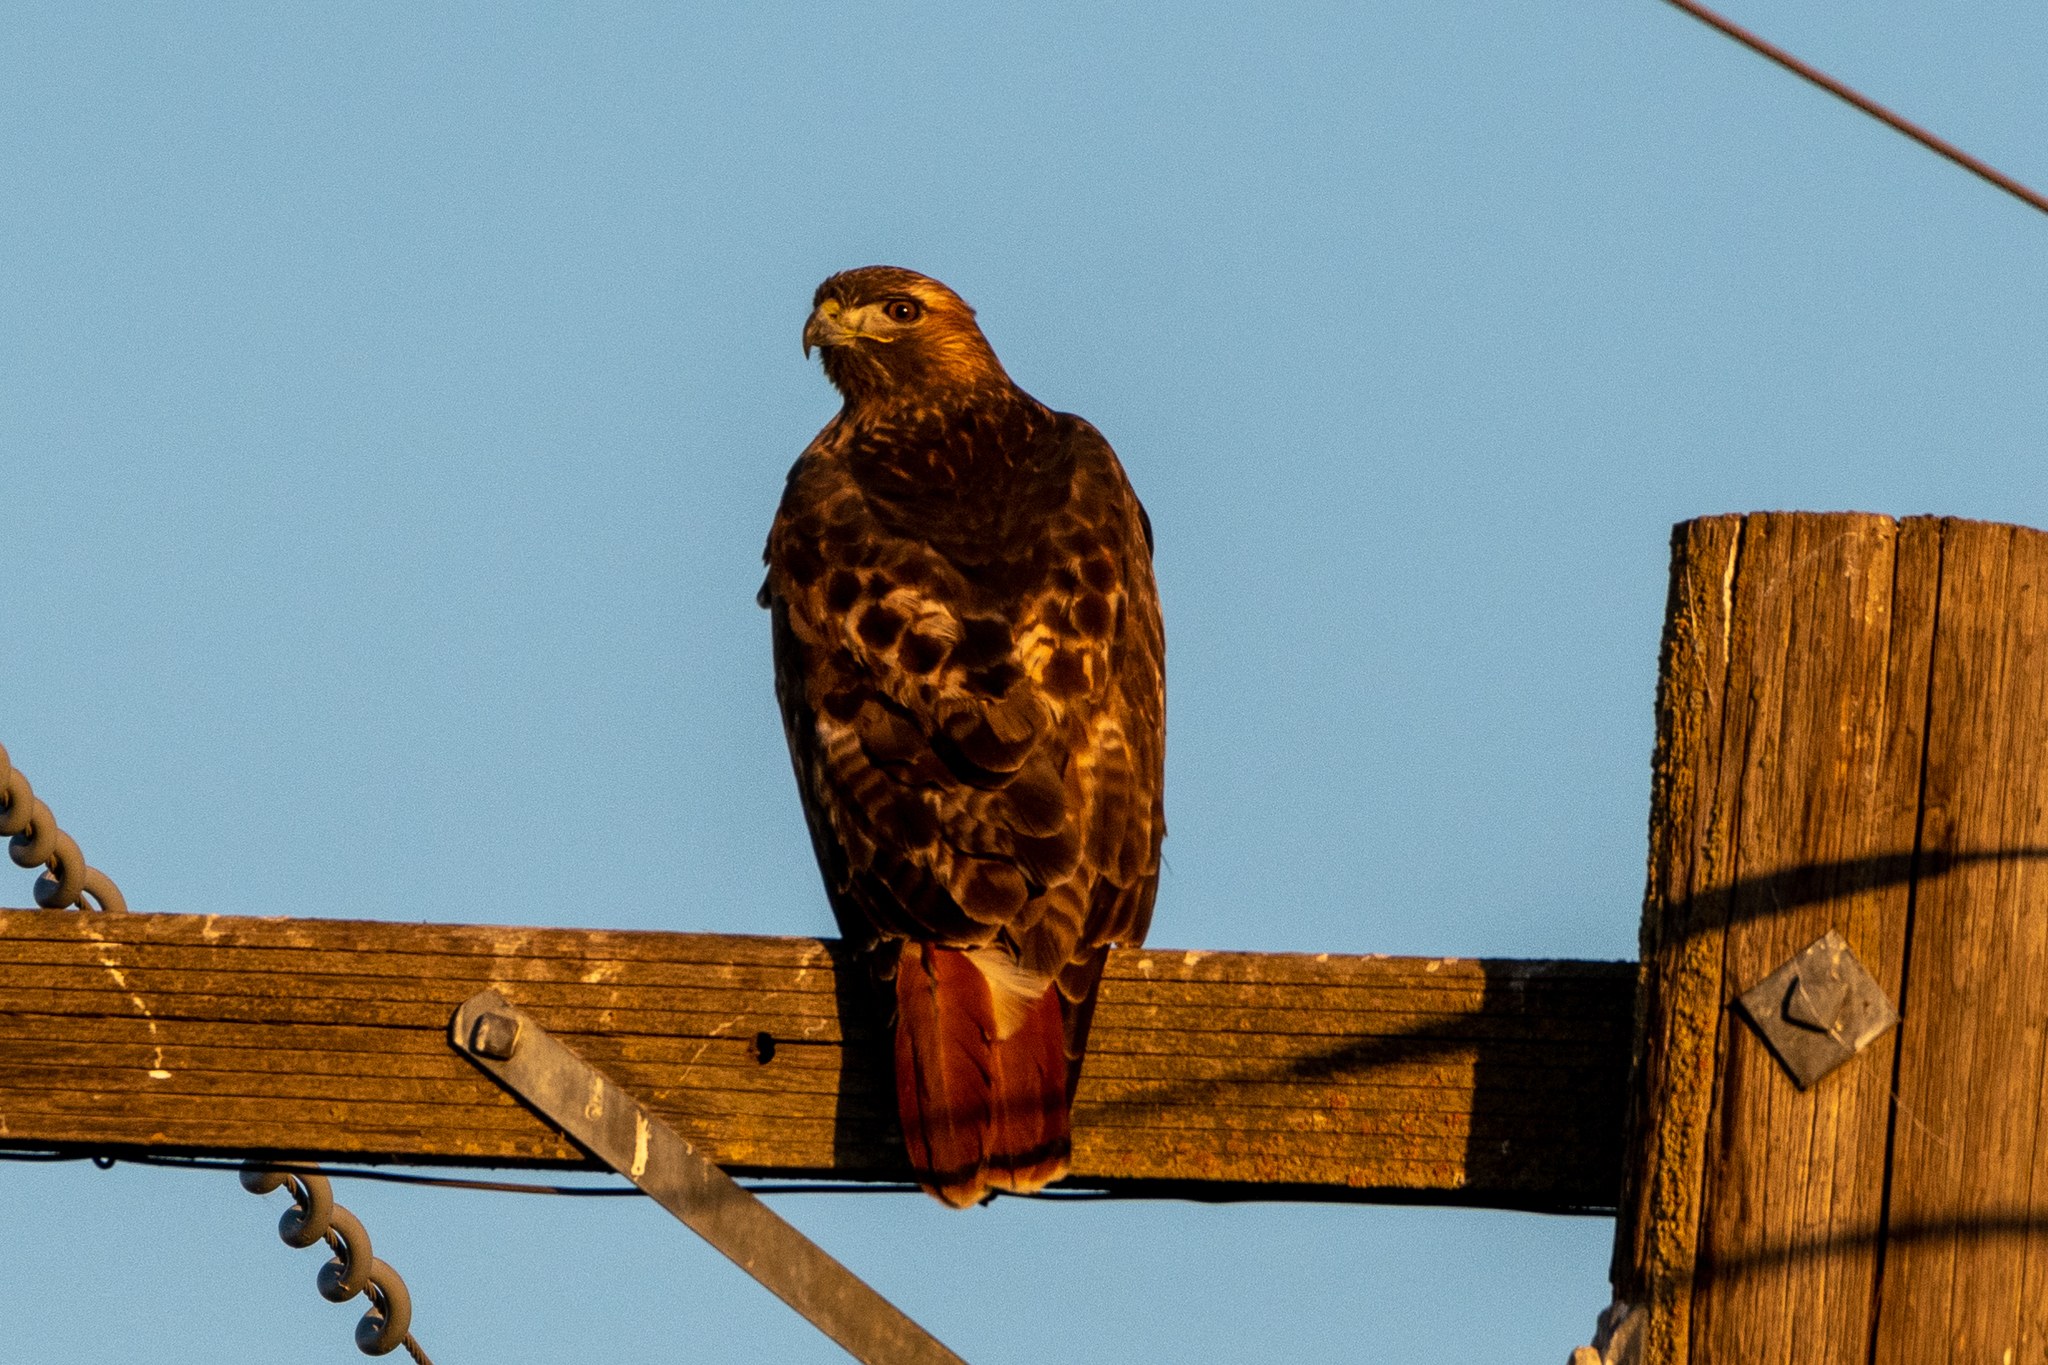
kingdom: Animalia
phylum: Chordata
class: Aves
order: Accipitriformes
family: Accipitridae
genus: Buteo
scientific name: Buteo jamaicensis
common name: Red-tailed hawk
